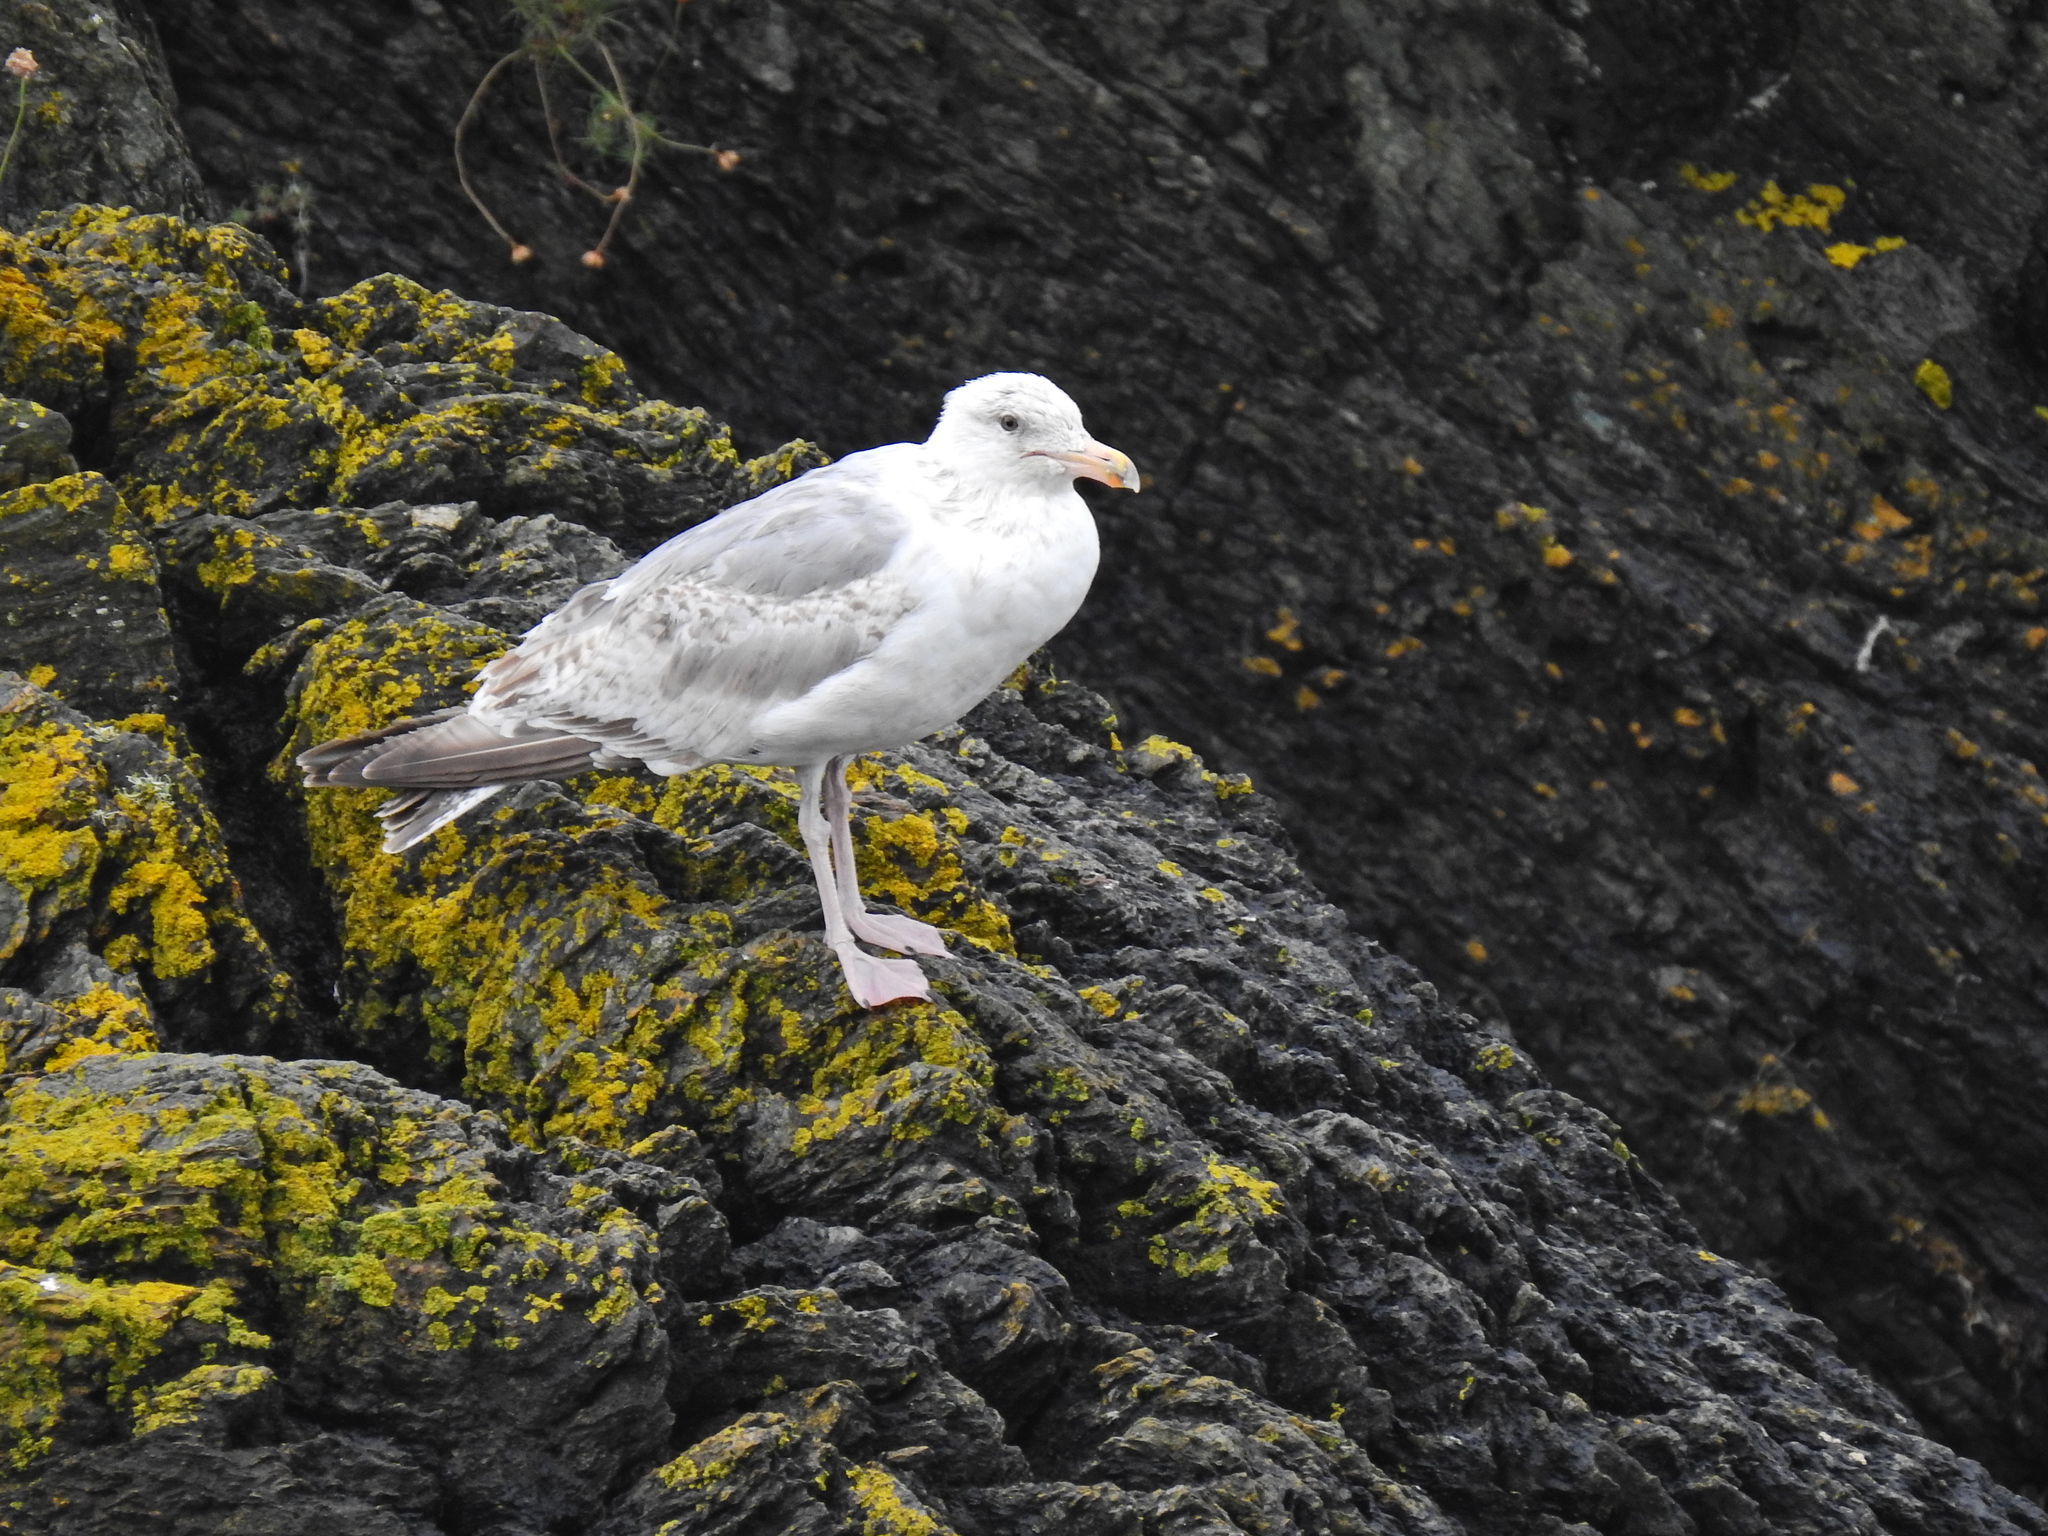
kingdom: Animalia
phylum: Chordata
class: Aves
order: Charadriiformes
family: Laridae
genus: Larus
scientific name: Larus argentatus
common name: Herring gull
